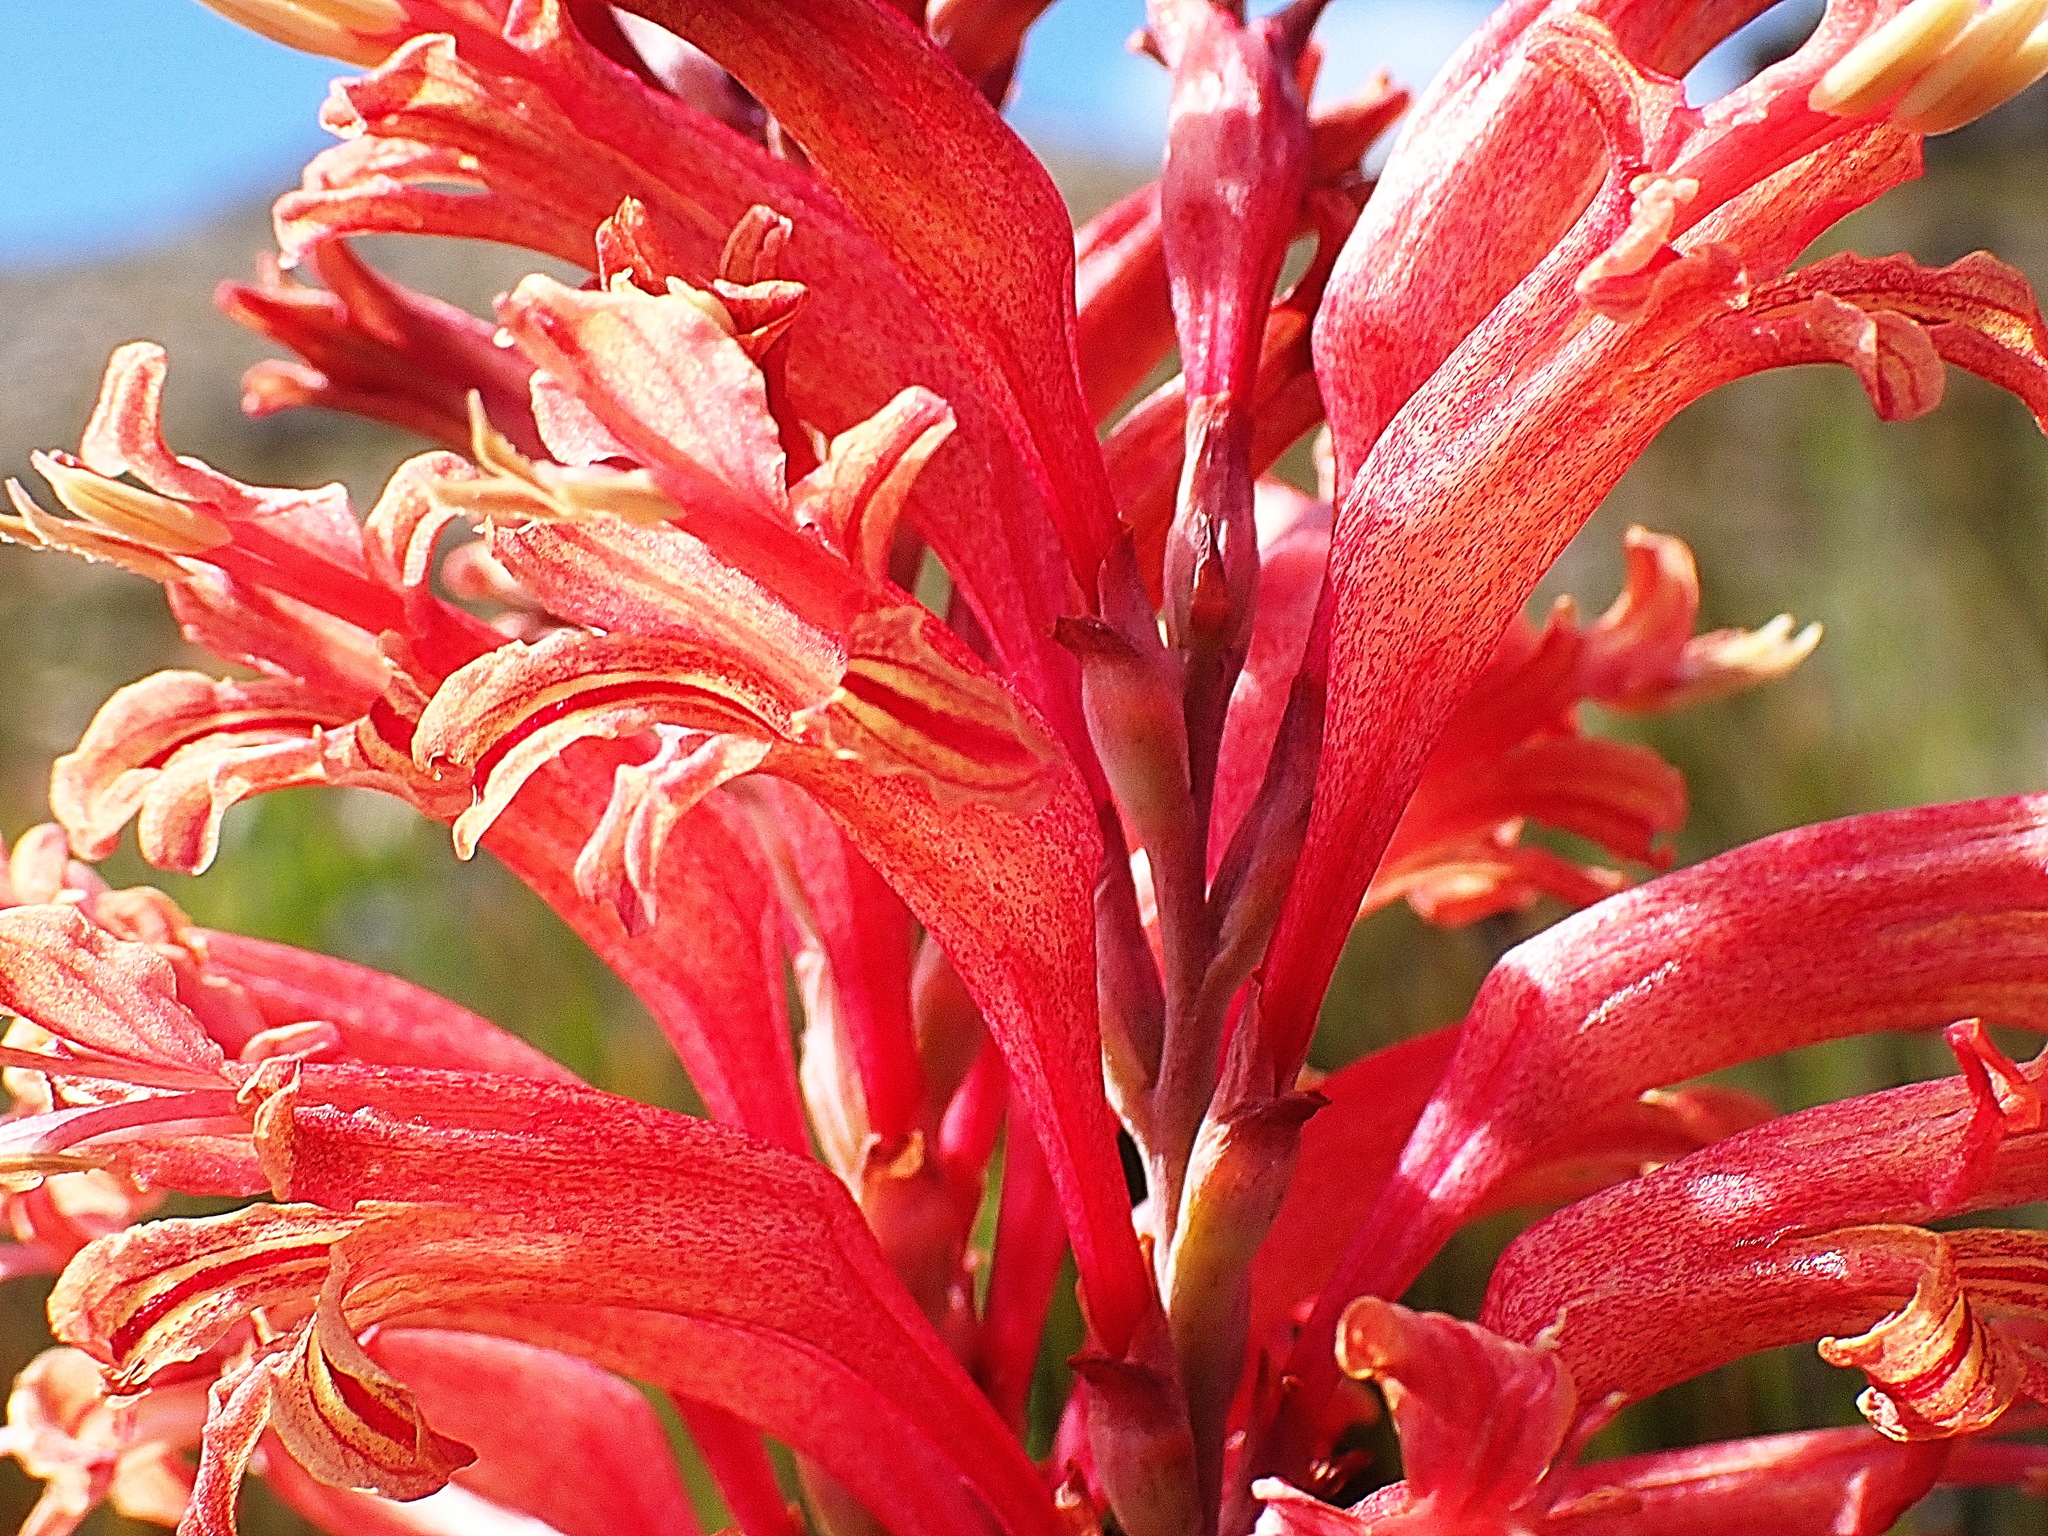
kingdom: Plantae
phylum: Tracheophyta
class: Liliopsida
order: Asparagales
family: Iridaceae
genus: Tritoniopsis
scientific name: Tritoniopsis antholyza
